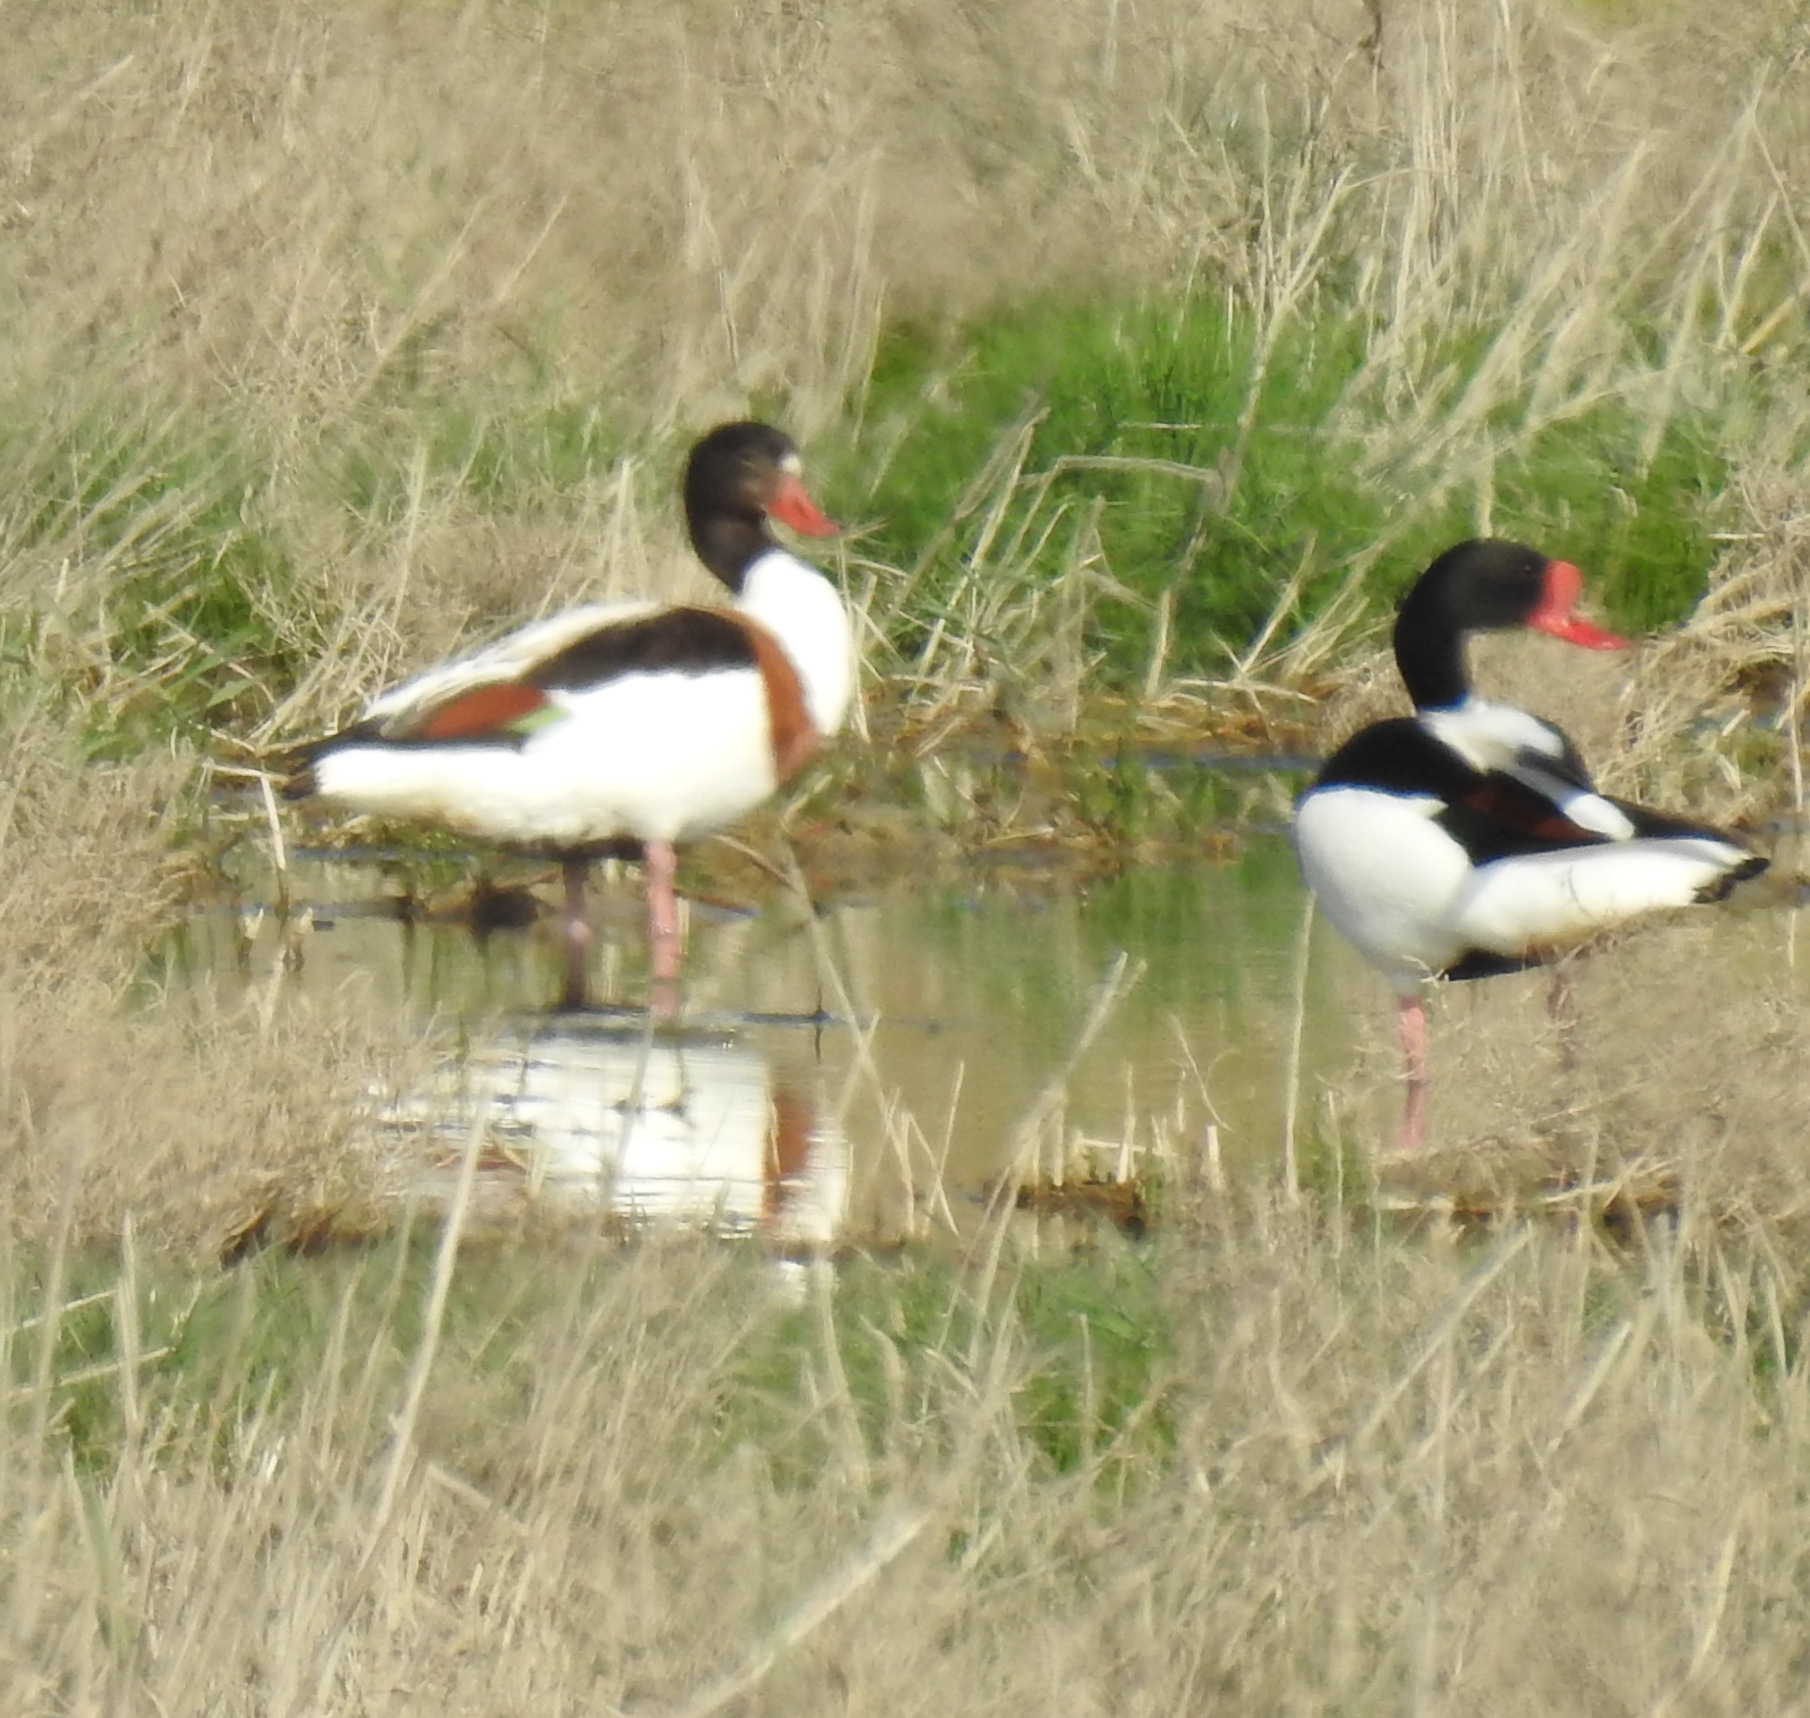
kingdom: Animalia
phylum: Chordata
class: Aves
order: Anseriformes
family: Anatidae
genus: Tadorna
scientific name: Tadorna tadorna
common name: Common shelduck
